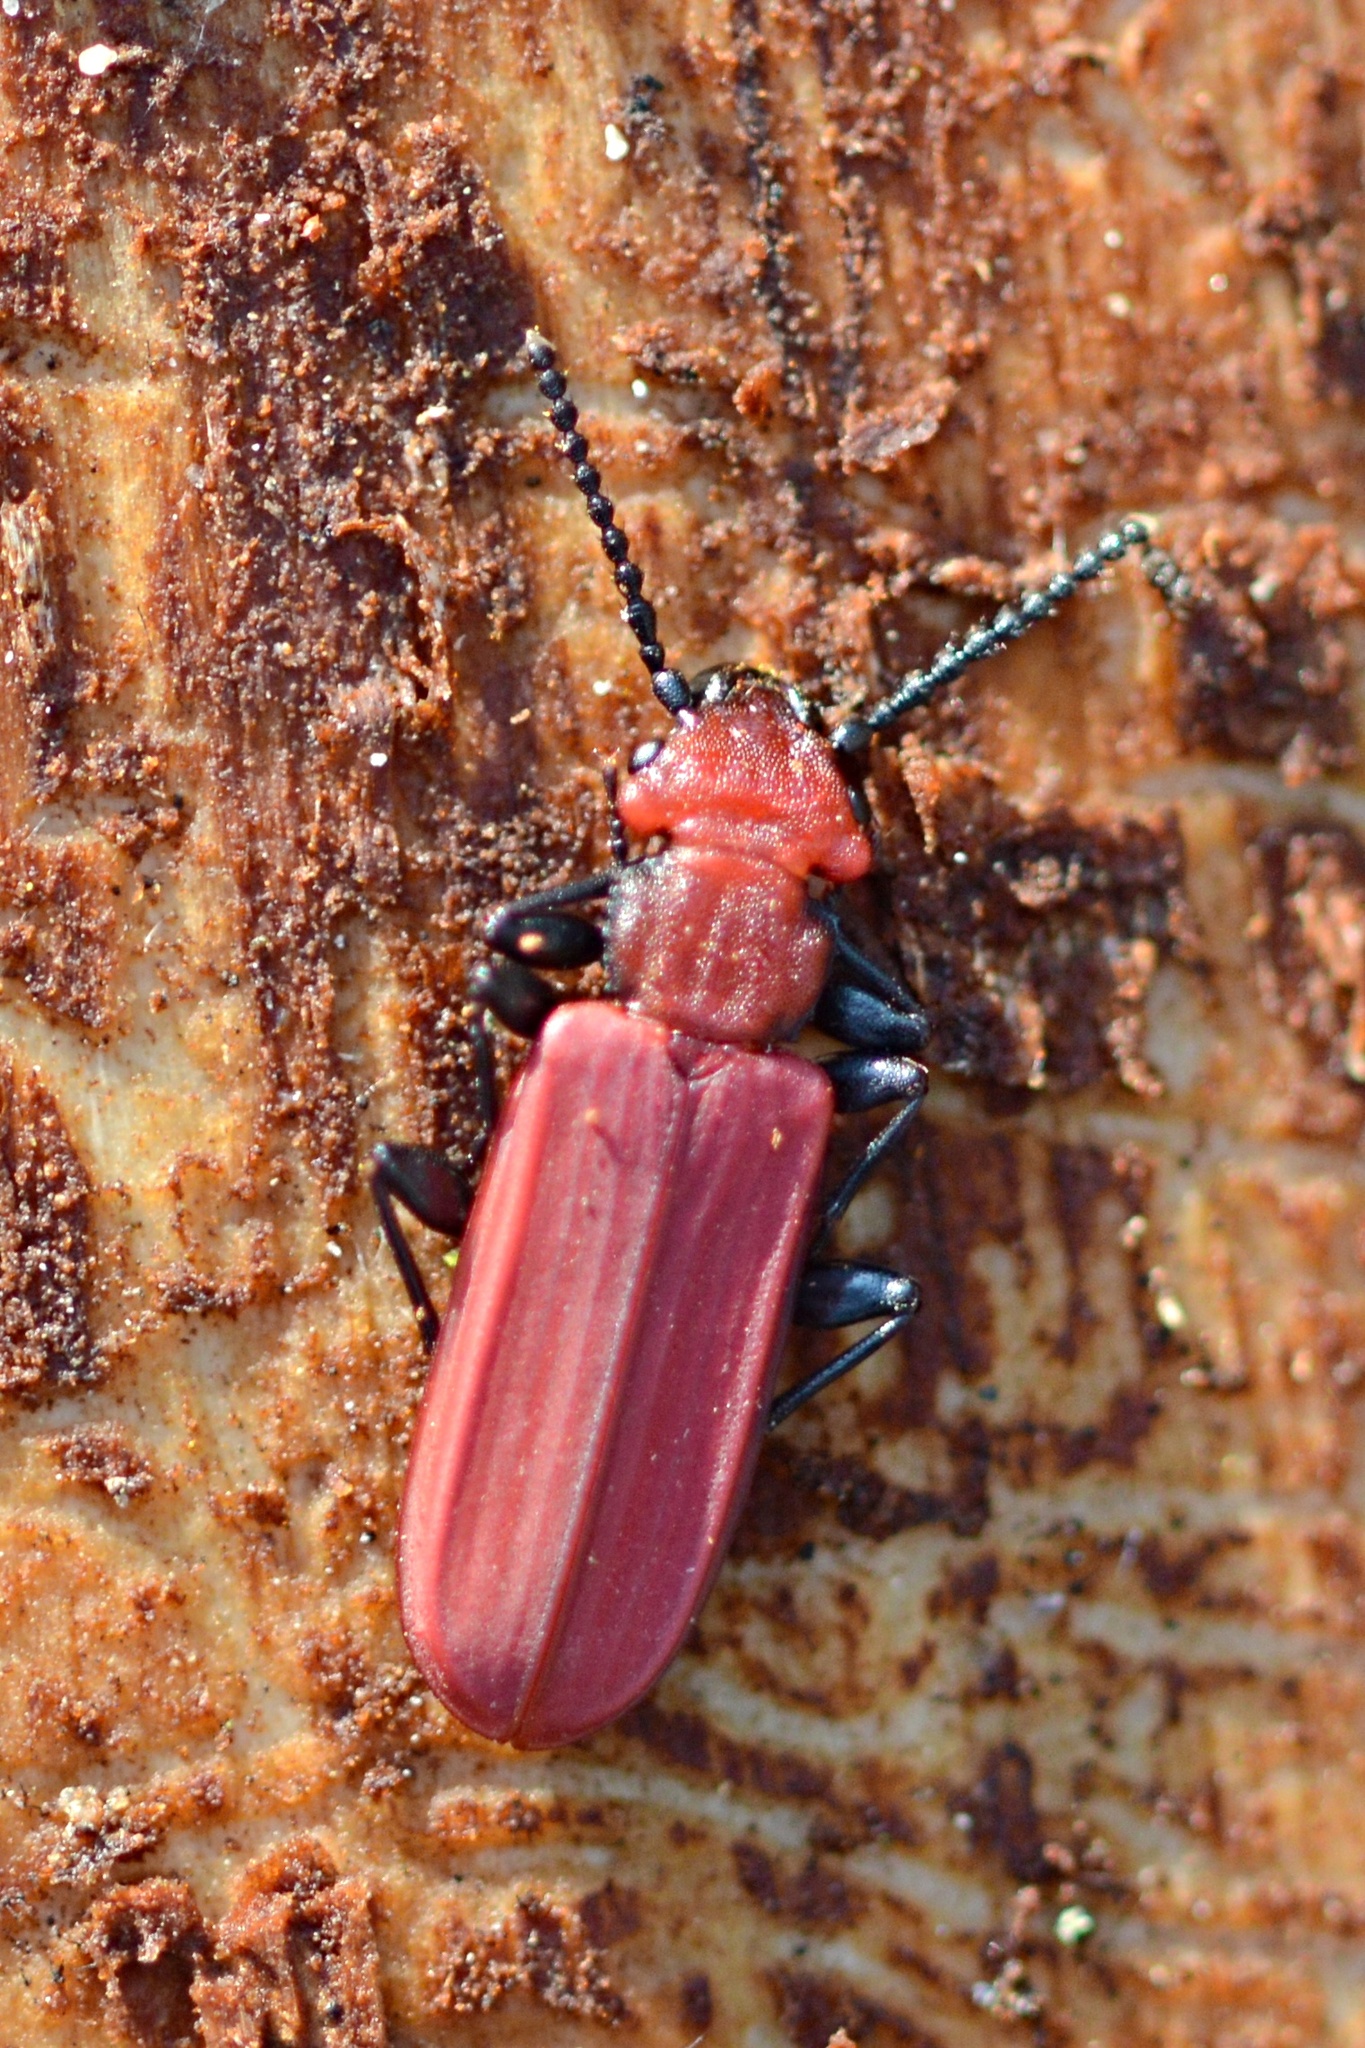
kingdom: Animalia
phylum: Arthropoda
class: Insecta
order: Coleoptera
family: Cucujidae
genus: Cucujus
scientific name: Cucujus cinnaberinus
